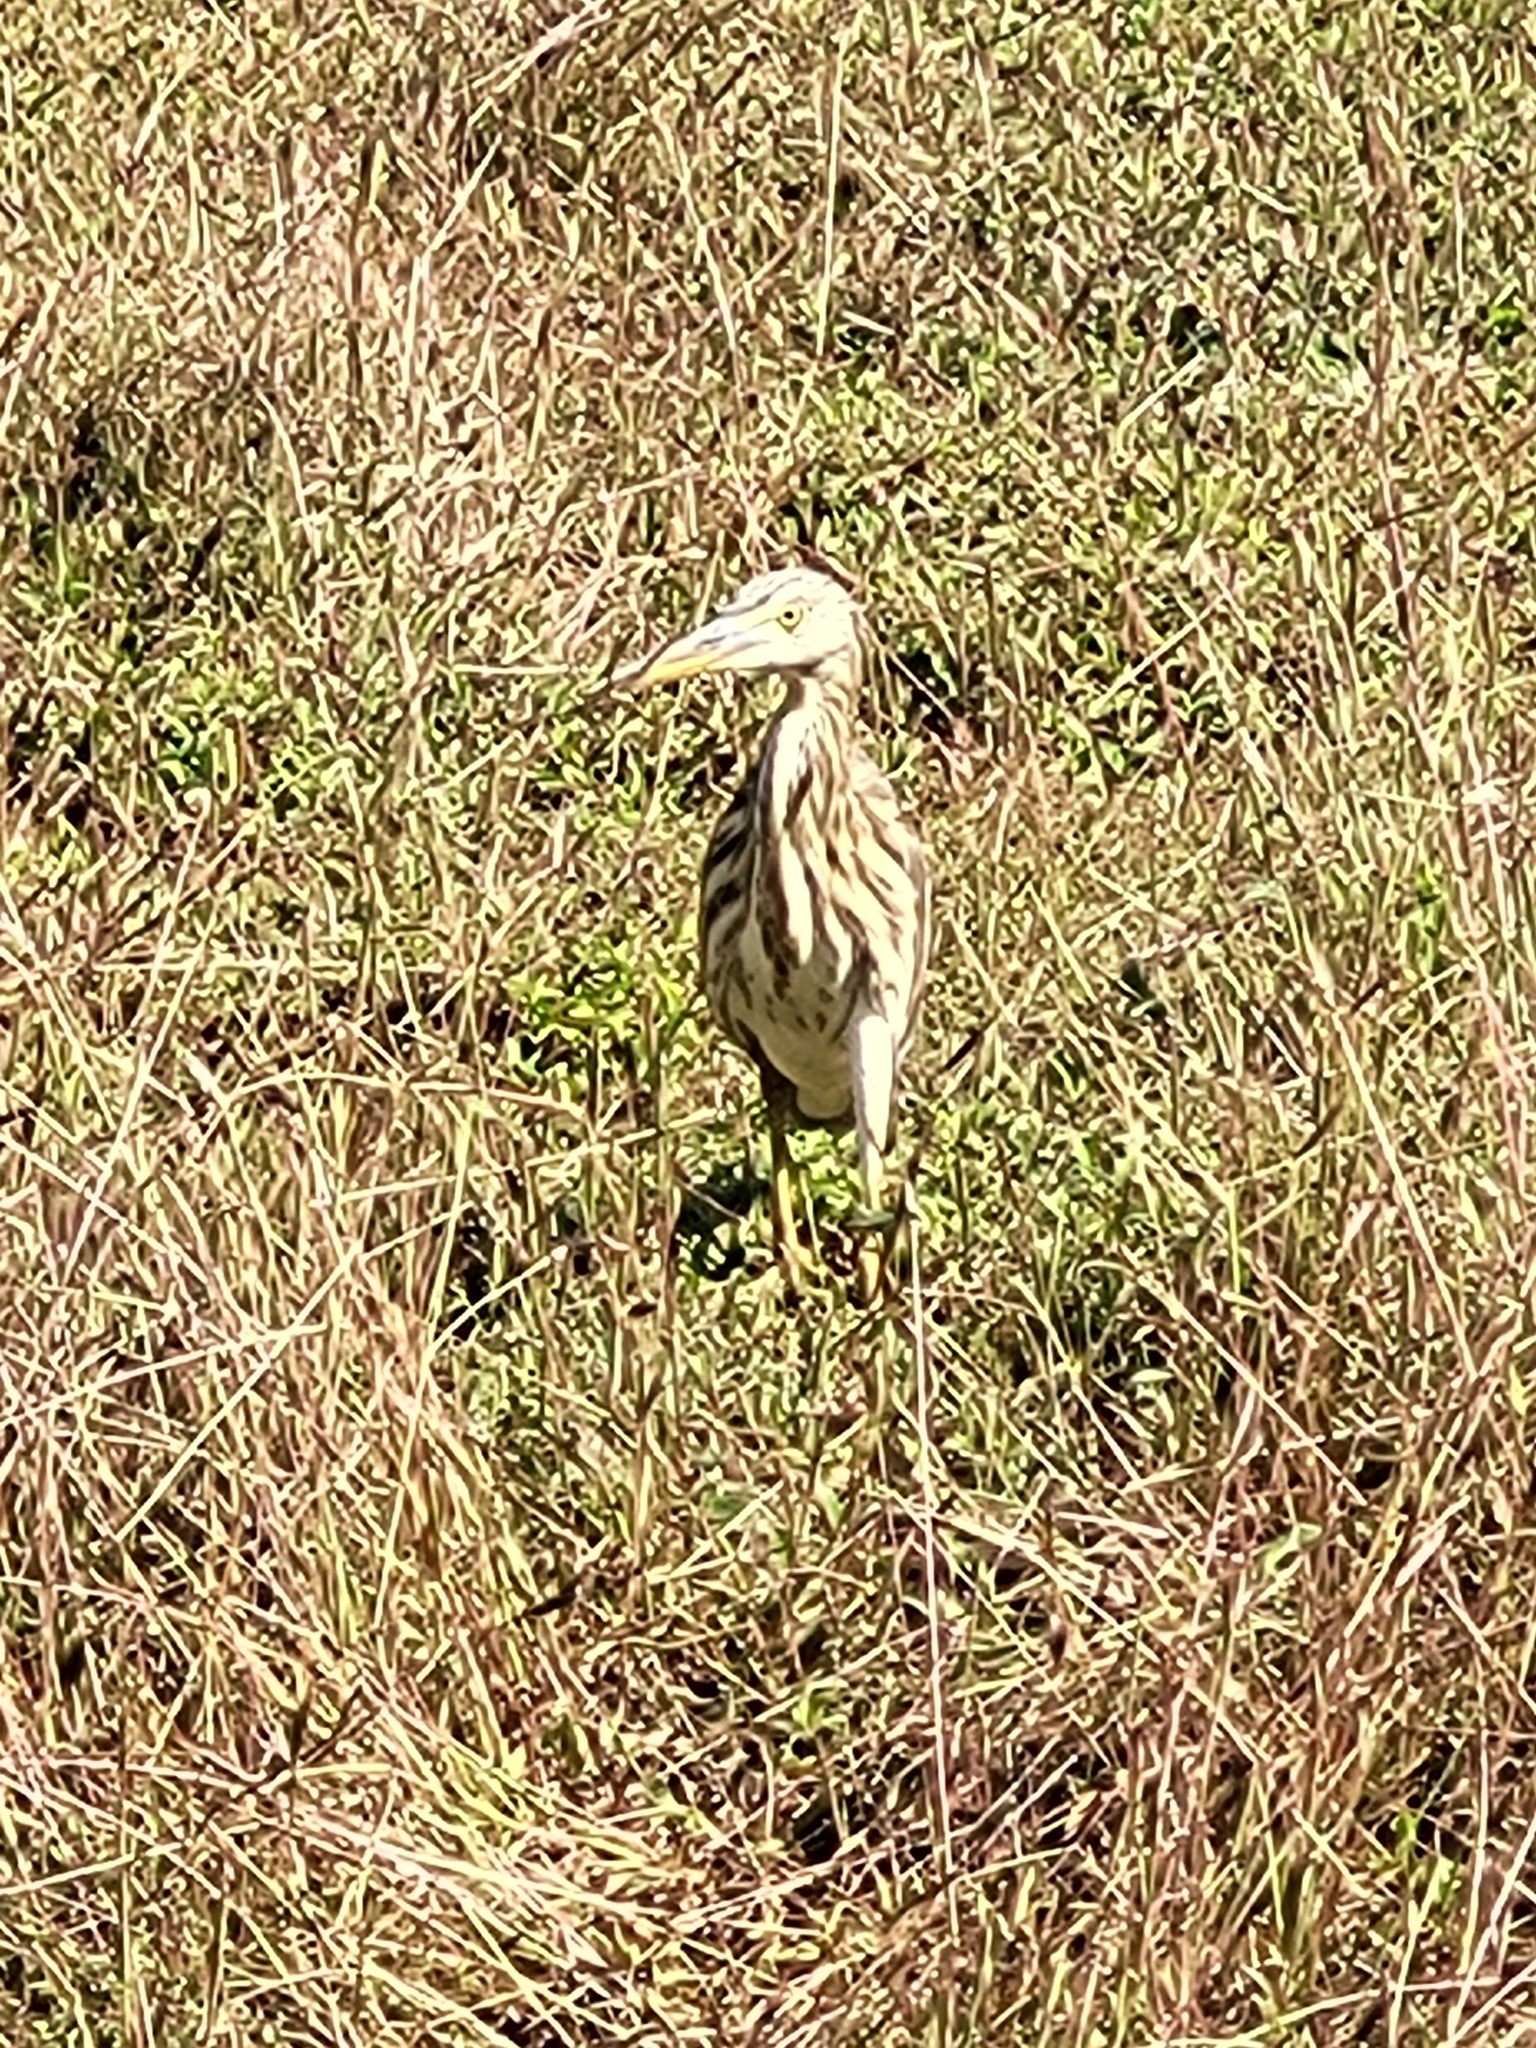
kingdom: Animalia
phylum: Chordata
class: Aves
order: Pelecaniformes
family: Ardeidae
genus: Ardeola
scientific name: Ardeola grayii
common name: Indian pond heron
